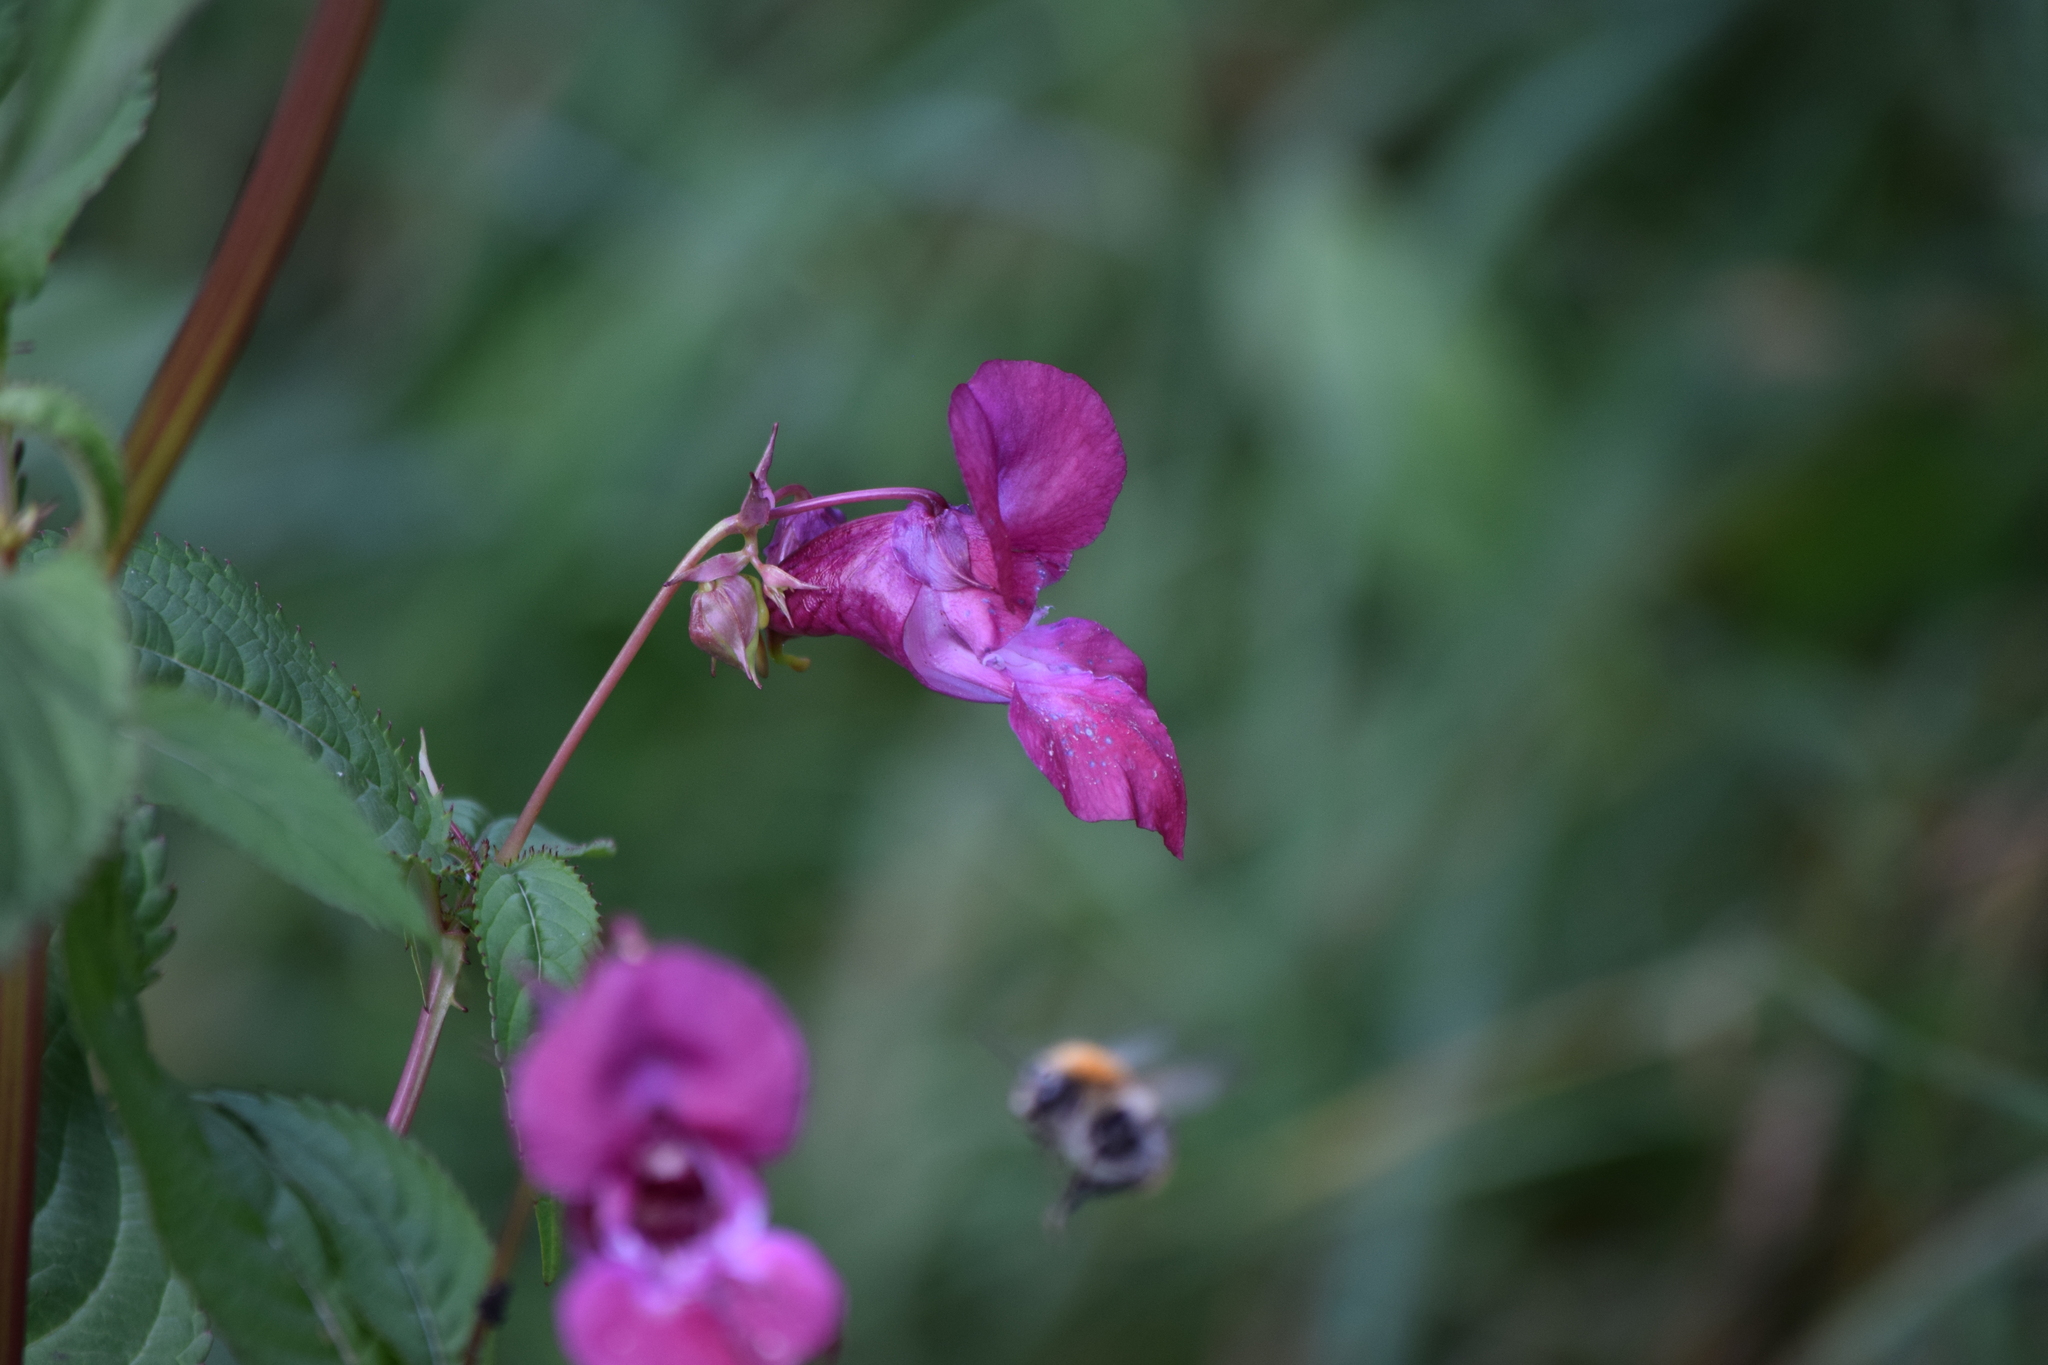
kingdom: Plantae
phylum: Tracheophyta
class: Magnoliopsida
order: Ericales
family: Balsaminaceae
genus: Impatiens
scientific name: Impatiens glandulifera
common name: Himalayan balsam
